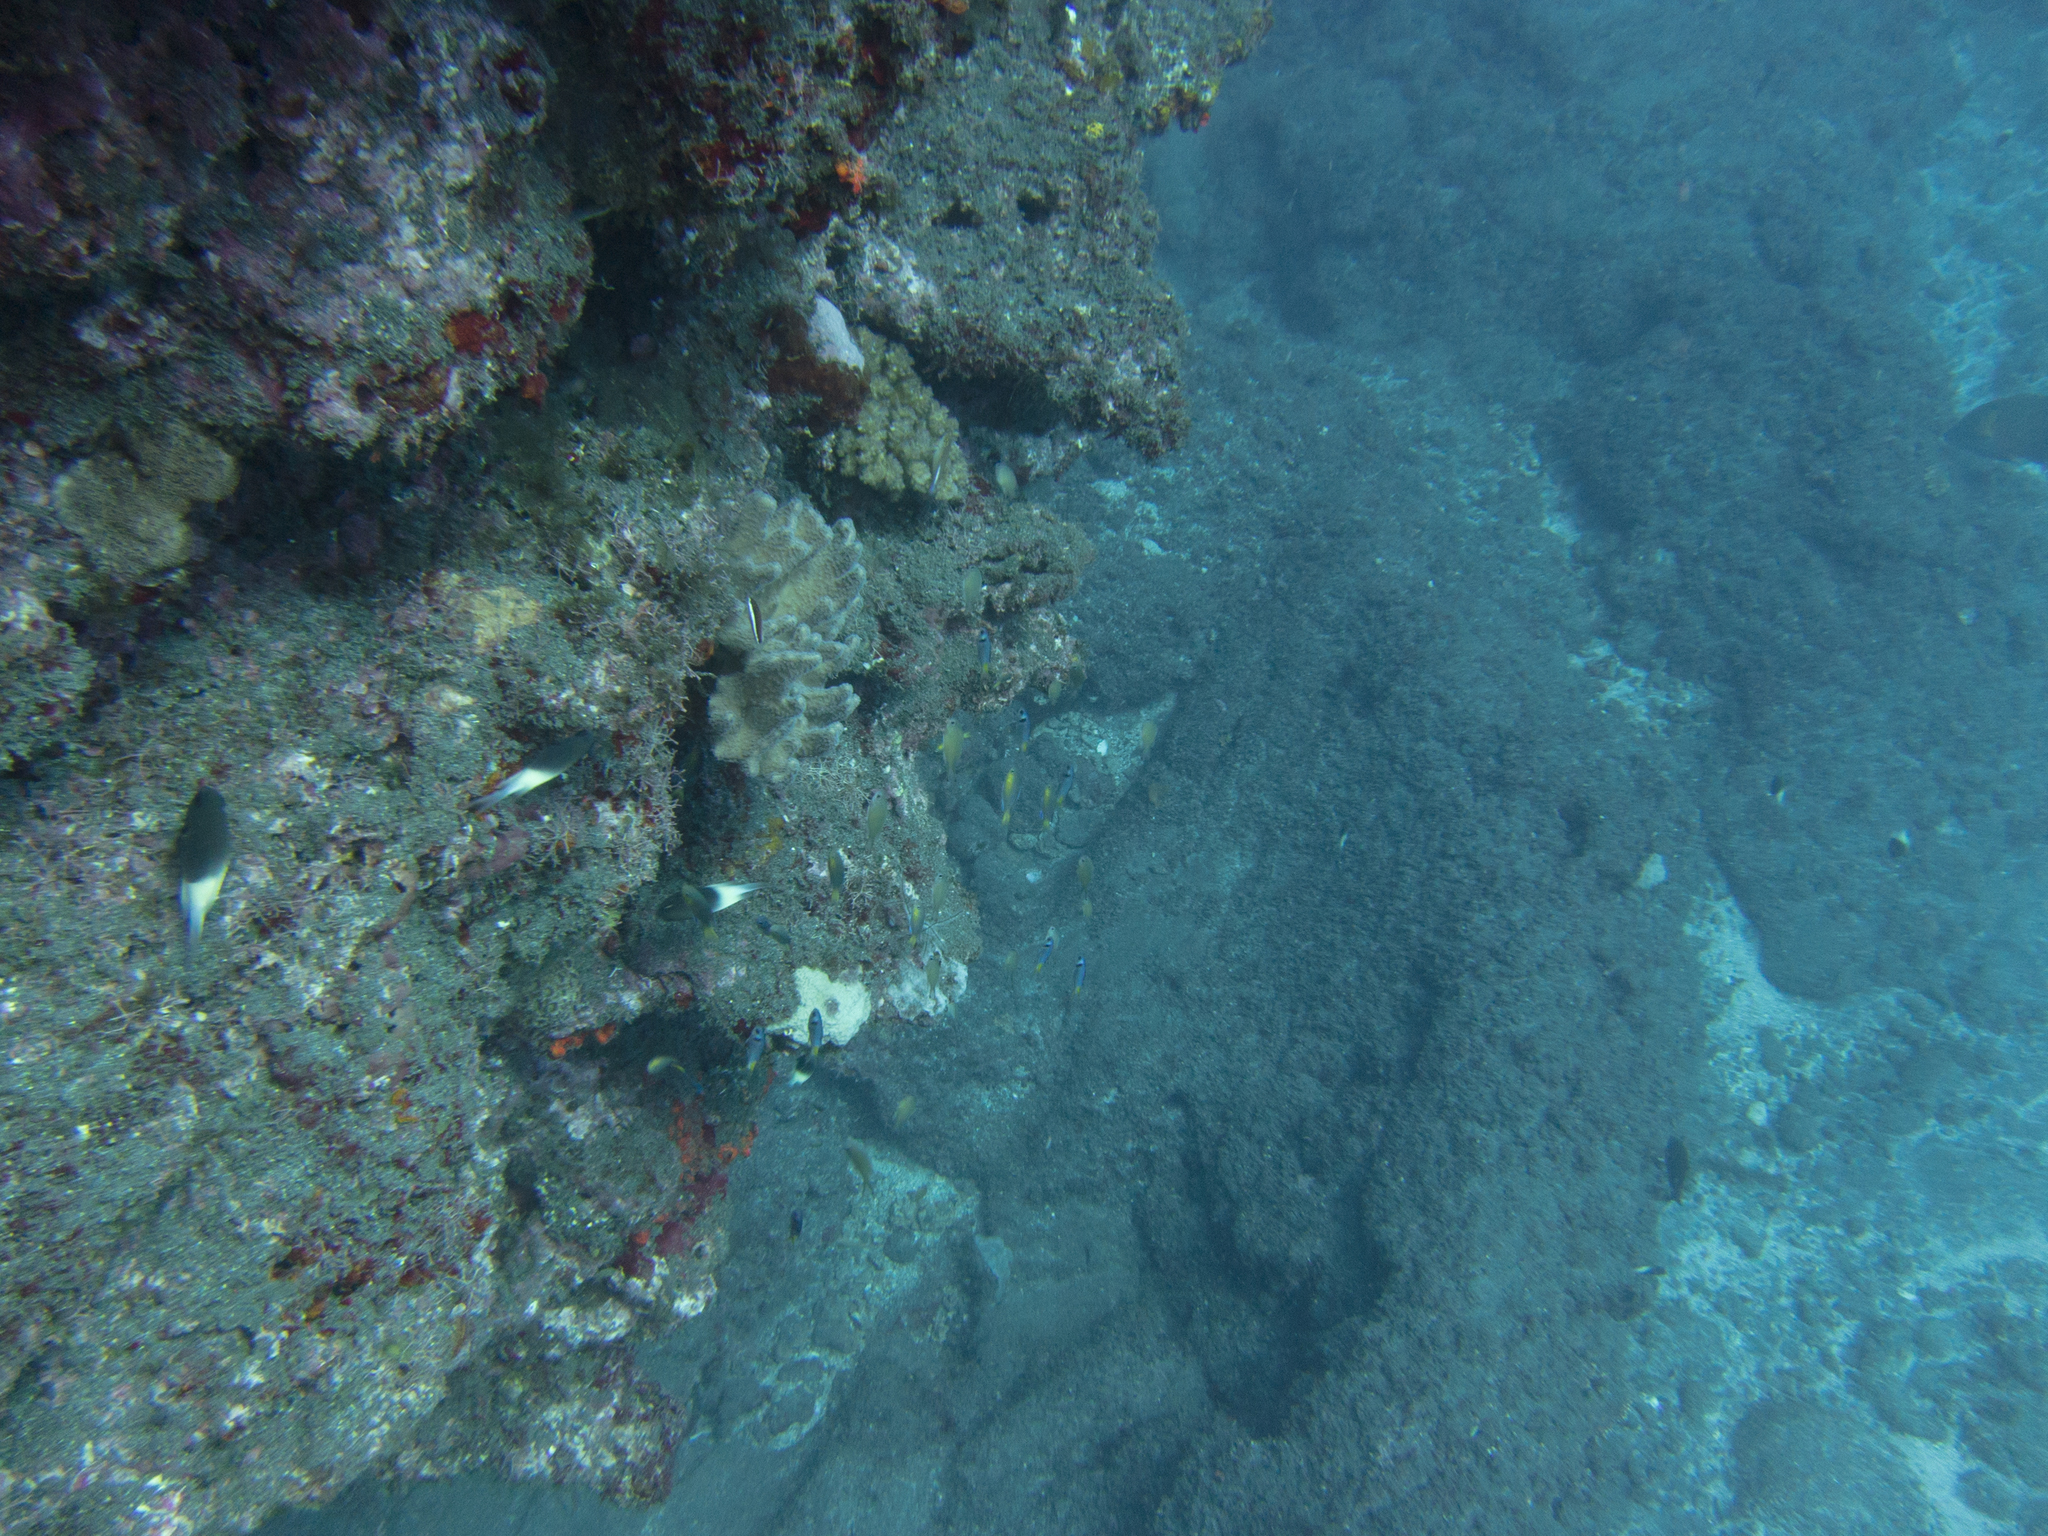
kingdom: Animalia
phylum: Chordata
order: Perciformes
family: Pomacentridae
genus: Chromis
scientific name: Chromis fieldi
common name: Chocolatedip chromis
